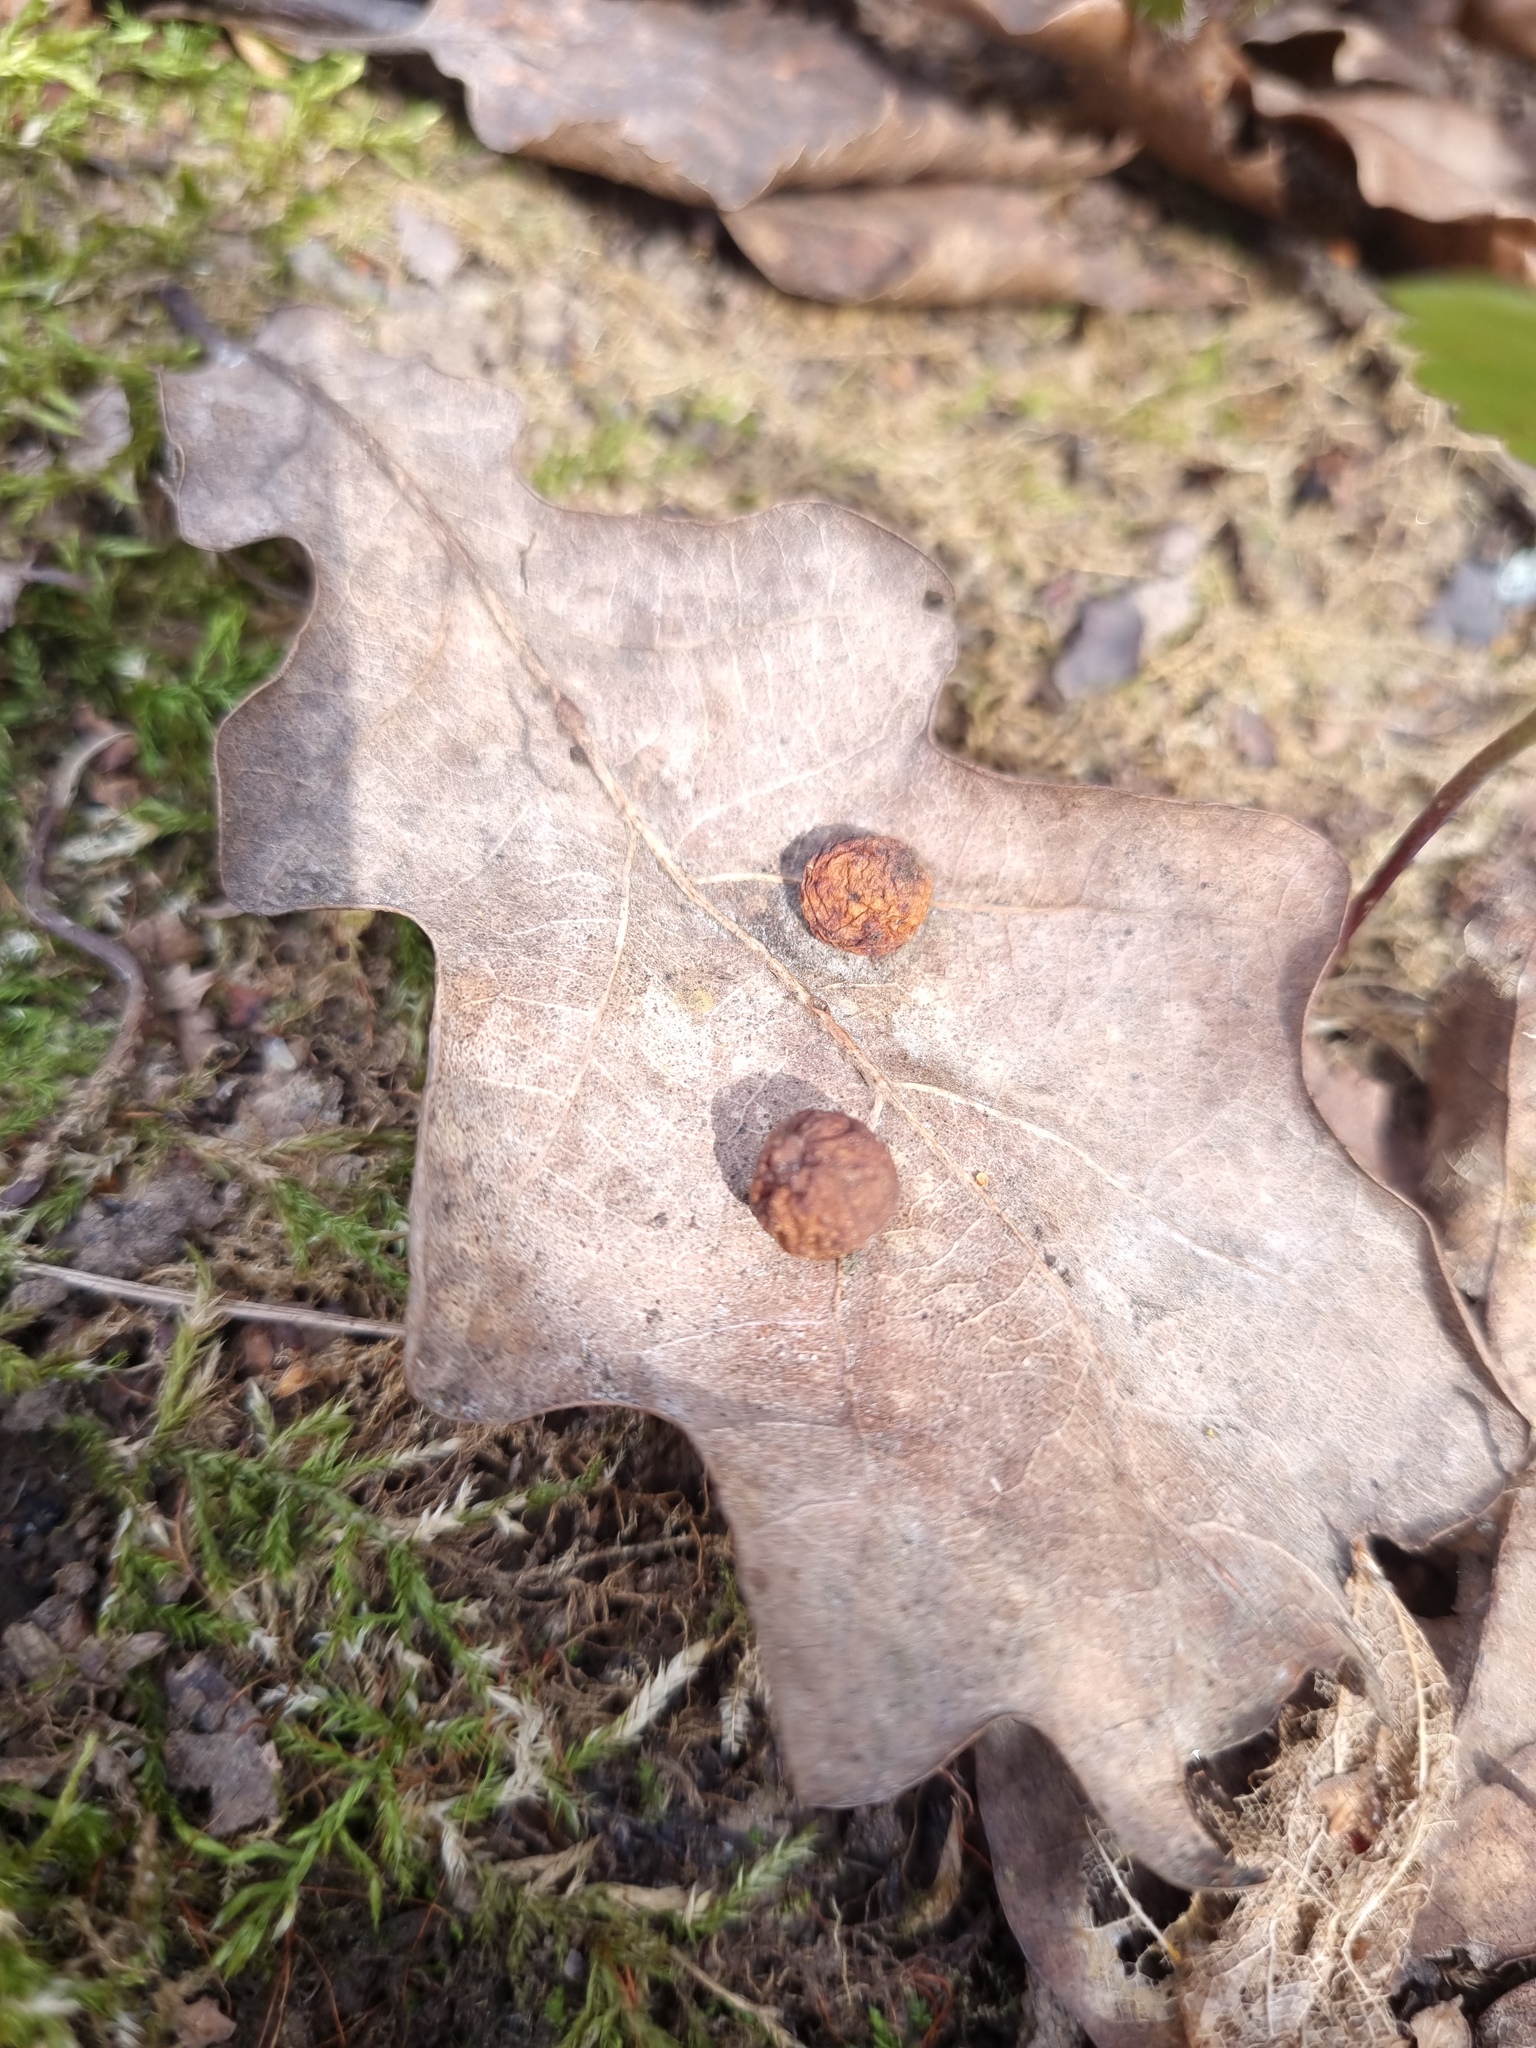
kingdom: Animalia
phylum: Arthropoda
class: Insecta
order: Hymenoptera
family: Cynipidae
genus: Cynips
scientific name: Cynips quercusfolii
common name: Cherry gall
